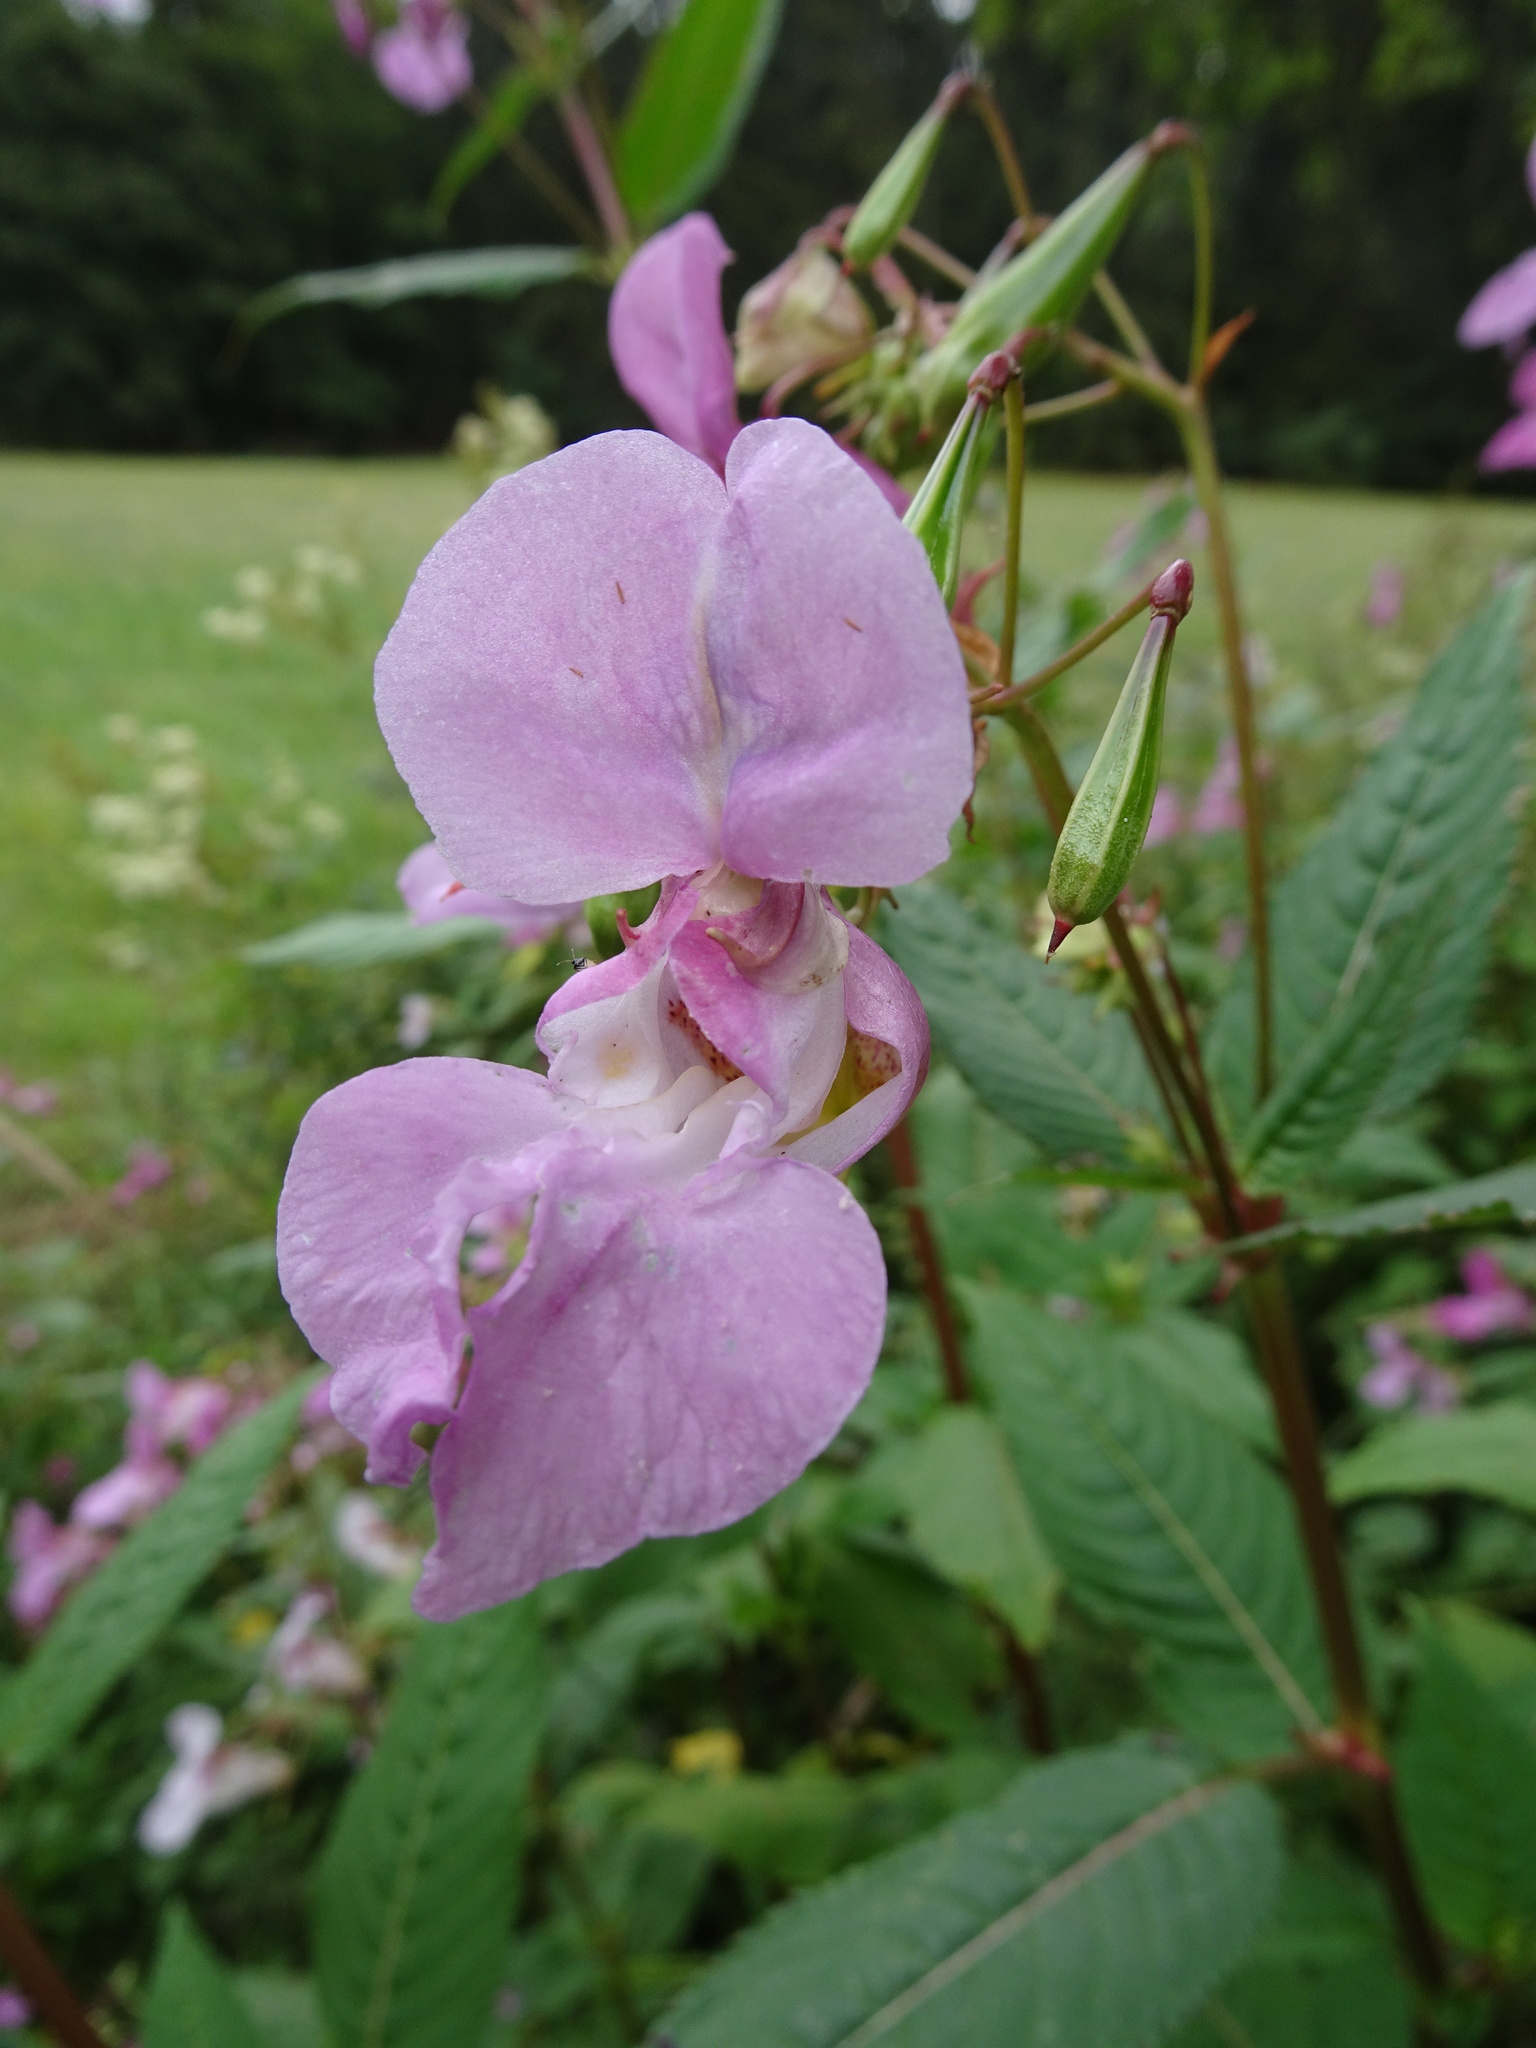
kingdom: Plantae
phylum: Tracheophyta
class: Magnoliopsida
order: Ericales
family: Balsaminaceae
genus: Impatiens
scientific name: Impatiens glandulifera
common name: Himalayan balsam
